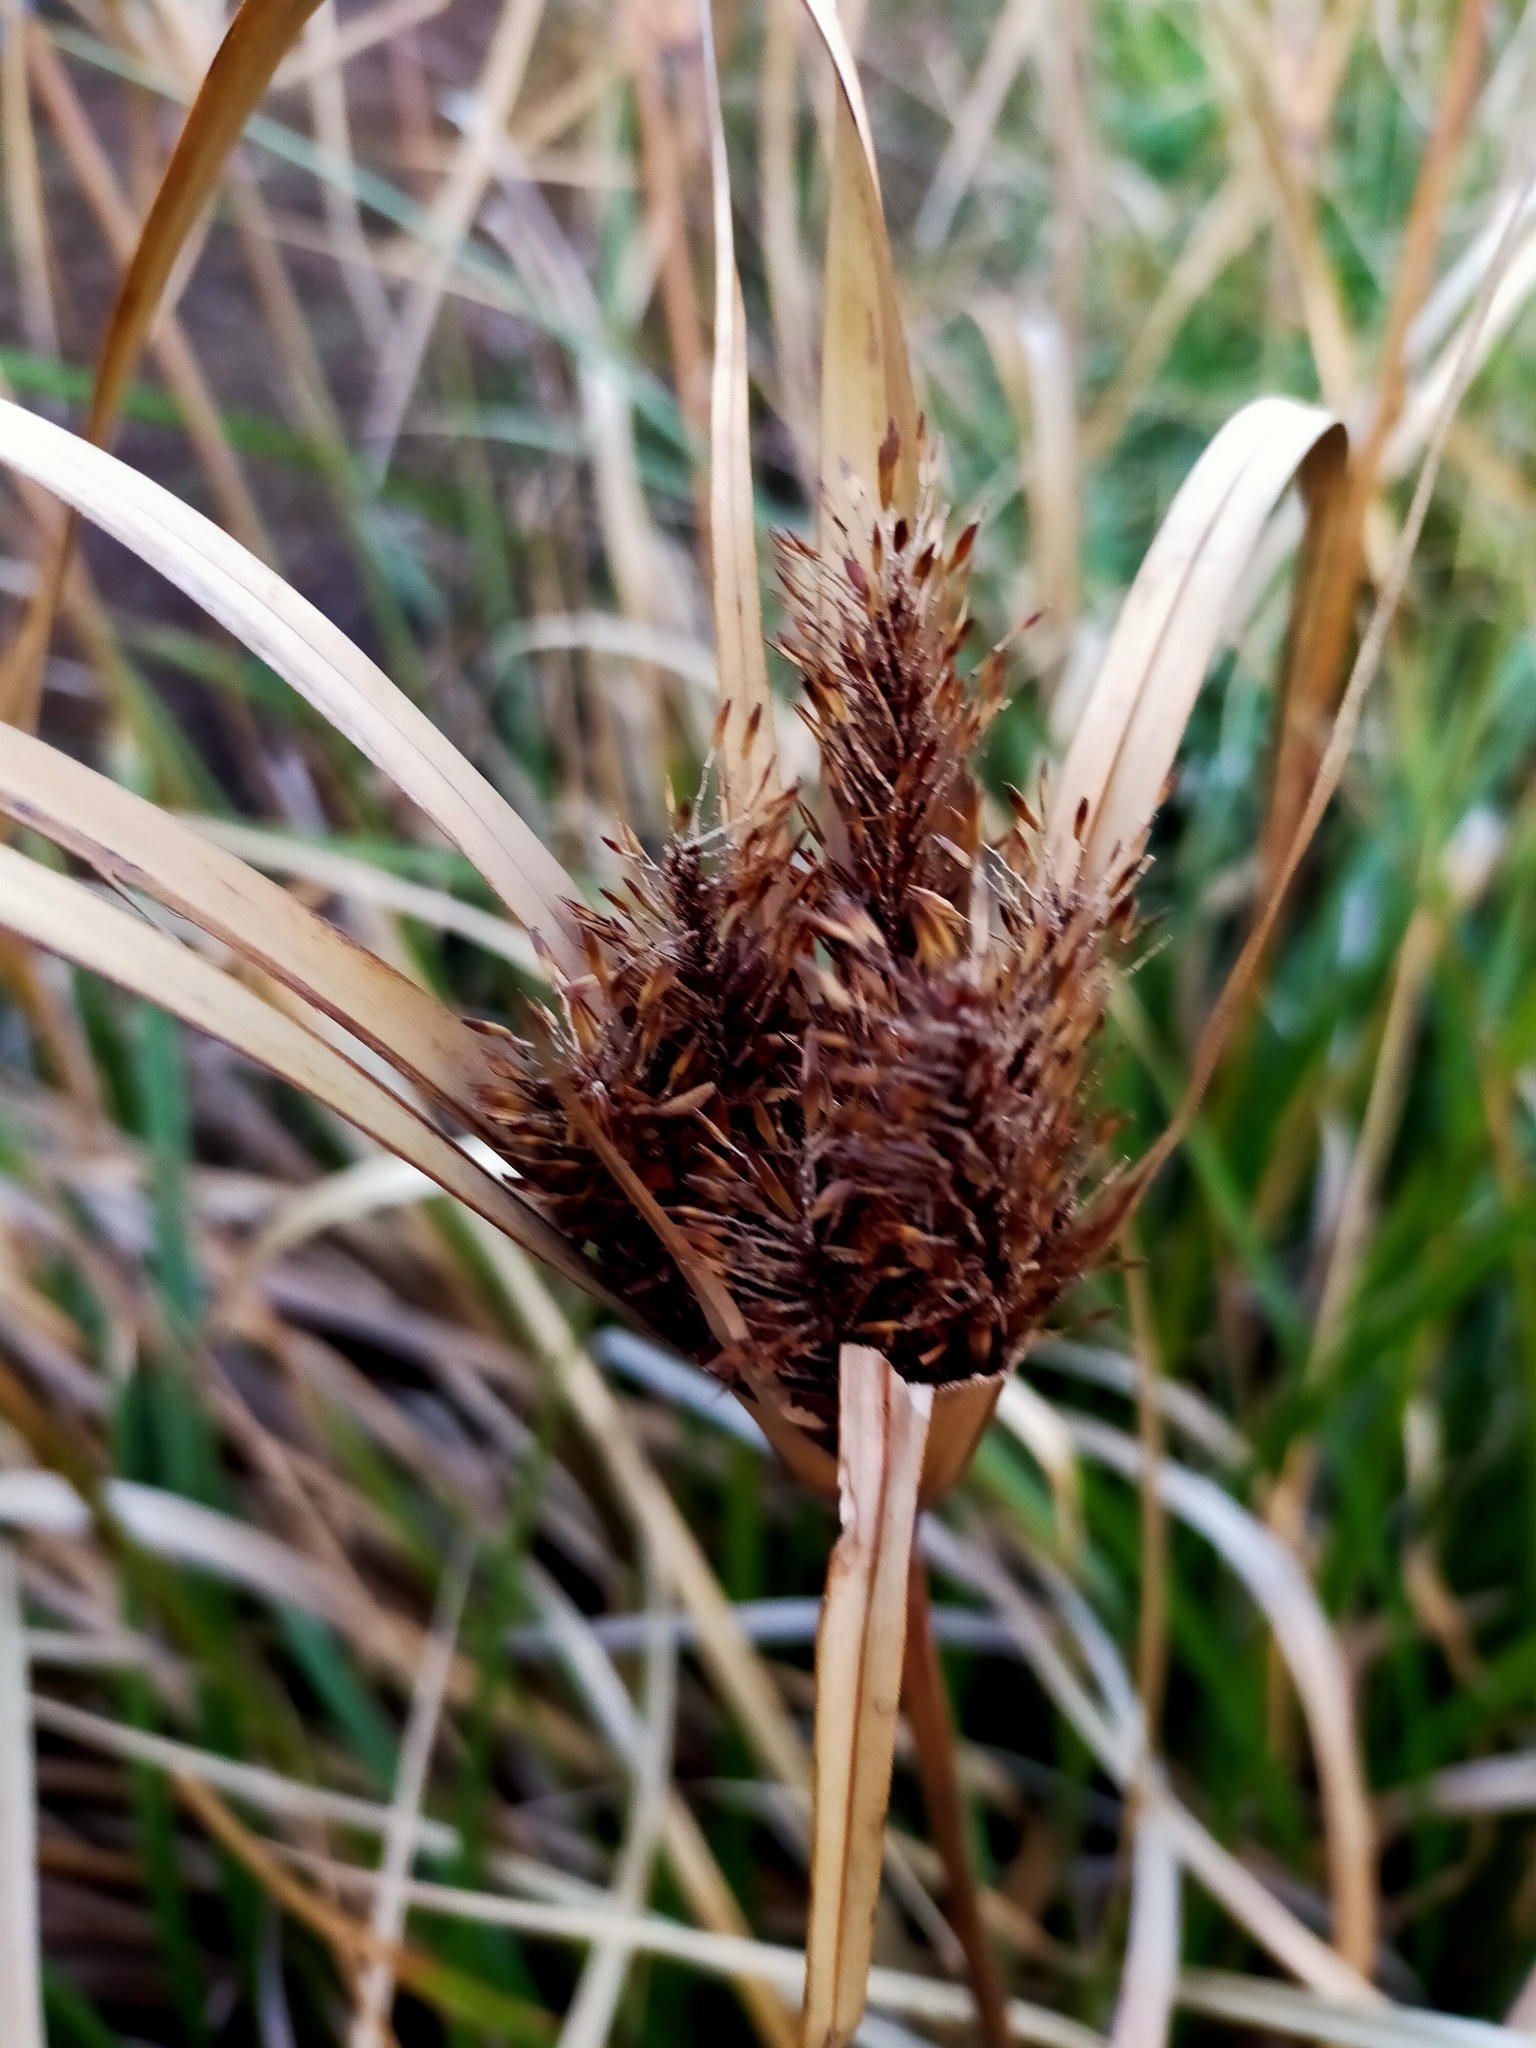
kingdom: Plantae
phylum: Tracheophyta
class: Liliopsida
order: Poales
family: Cyperaceae
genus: Cyperus
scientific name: Cyperus ustulatus
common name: Giant umbrella-sedge
